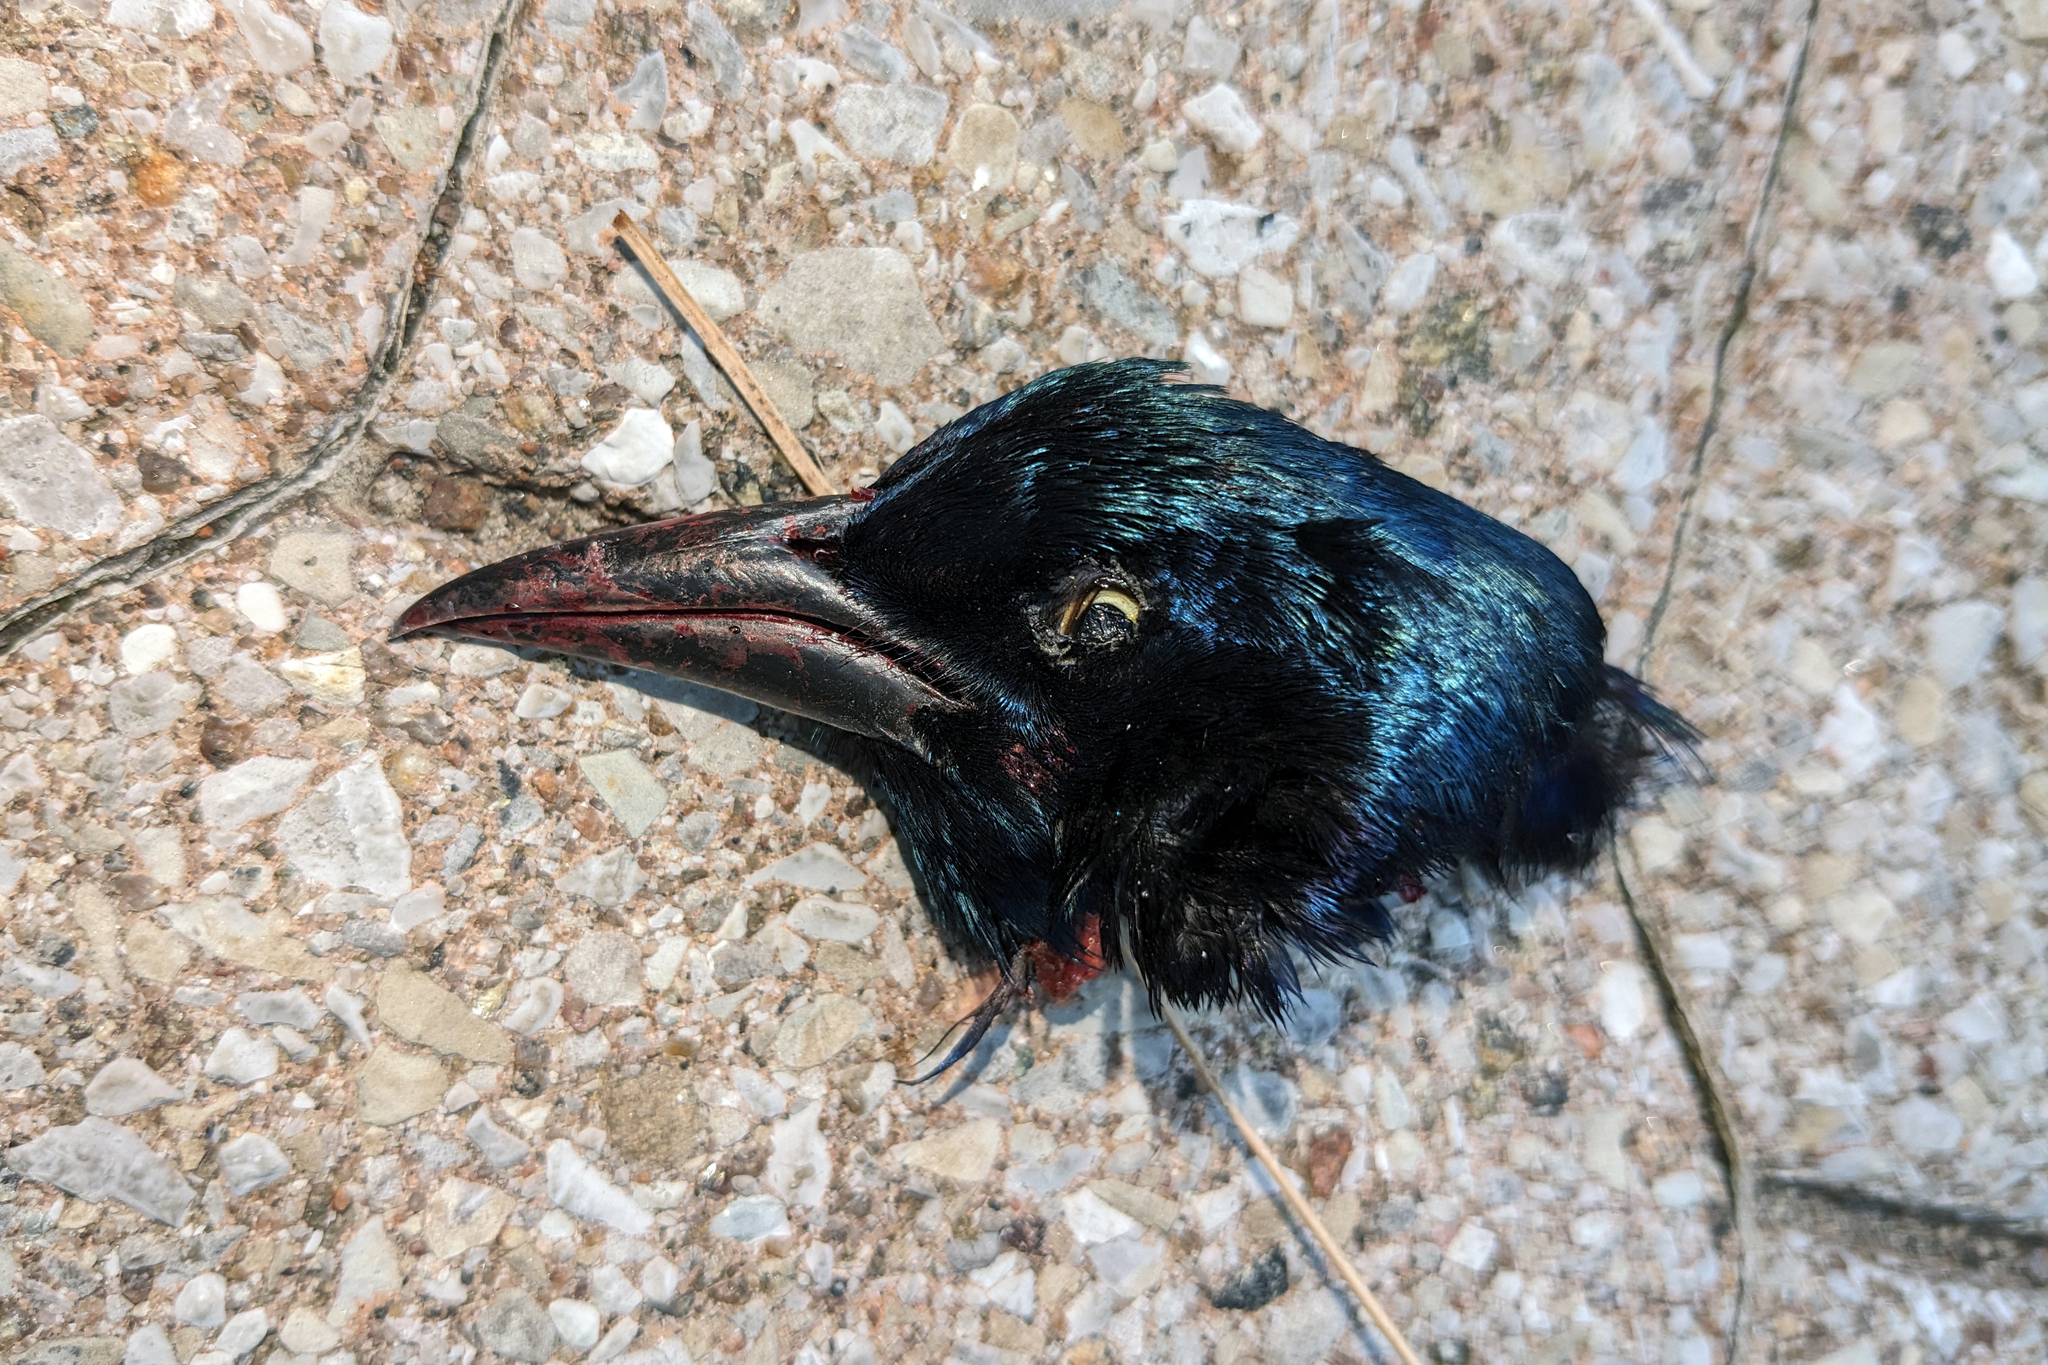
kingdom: Animalia
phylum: Chordata
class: Aves
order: Passeriformes
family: Icteridae
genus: Quiscalus
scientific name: Quiscalus quiscula
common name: Common grackle
